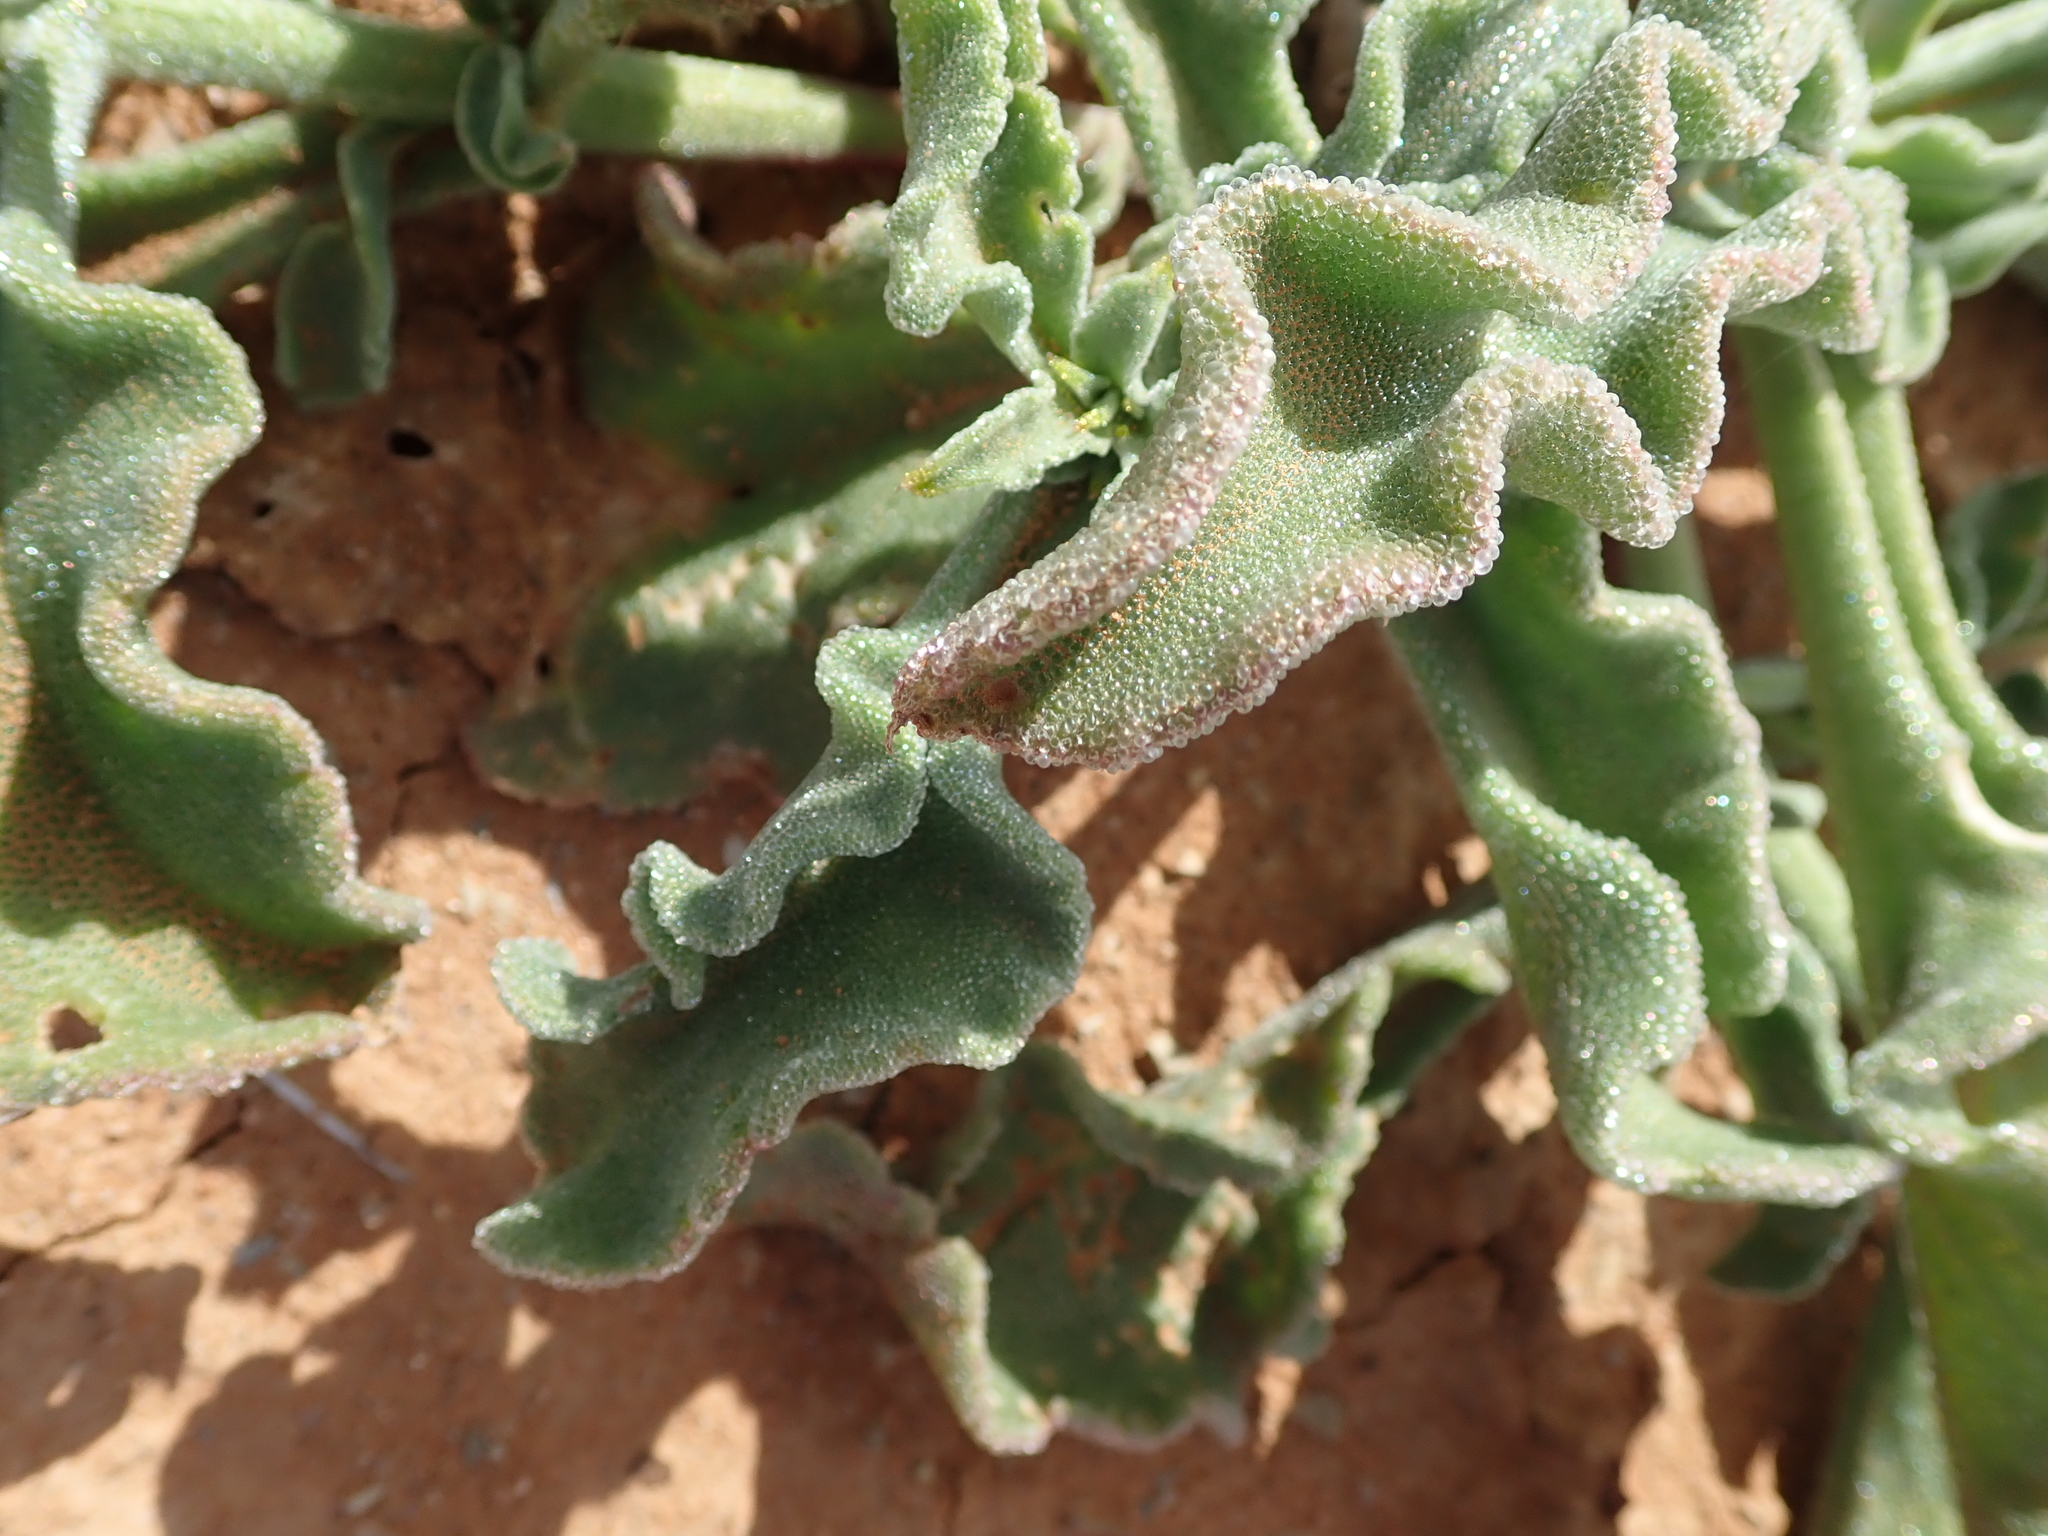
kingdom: Plantae
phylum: Tracheophyta
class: Magnoliopsida
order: Caryophyllales
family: Aizoaceae
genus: Mesembryanthemum
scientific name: Mesembryanthemum guerichianum
